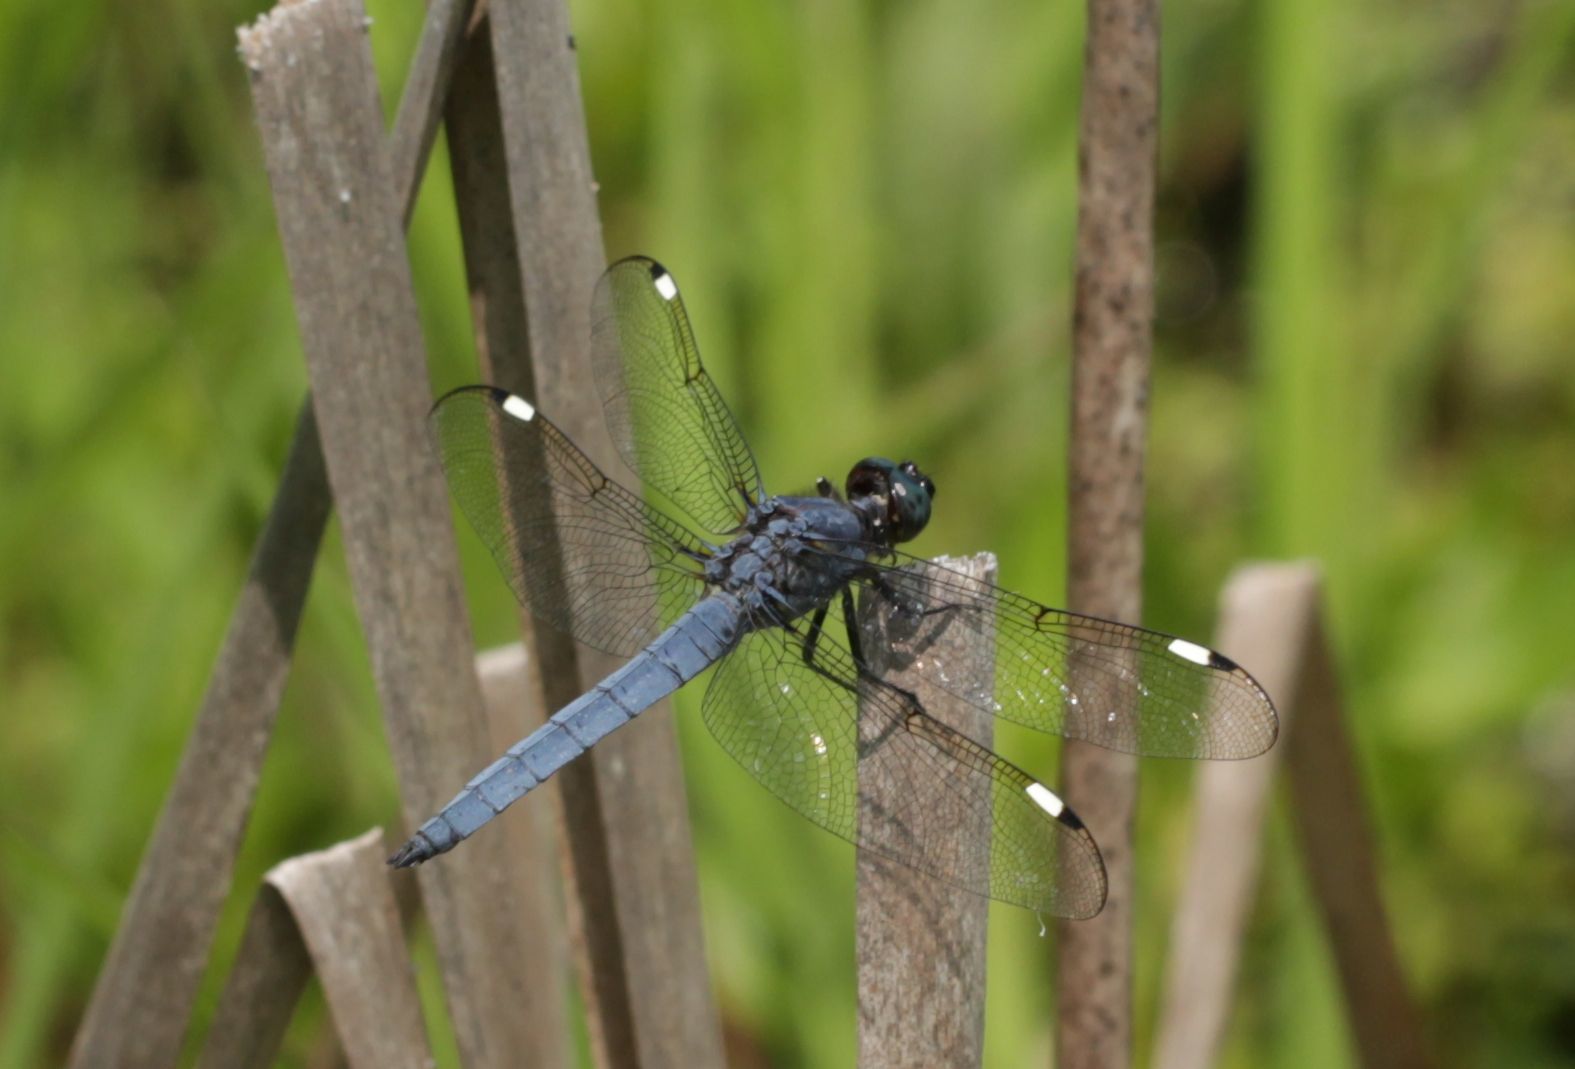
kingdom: Animalia
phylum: Arthropoda
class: Insecta
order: Odonata
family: Libellulidae
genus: Libellula
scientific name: Libellula cyanea
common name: Spangled skimmer
